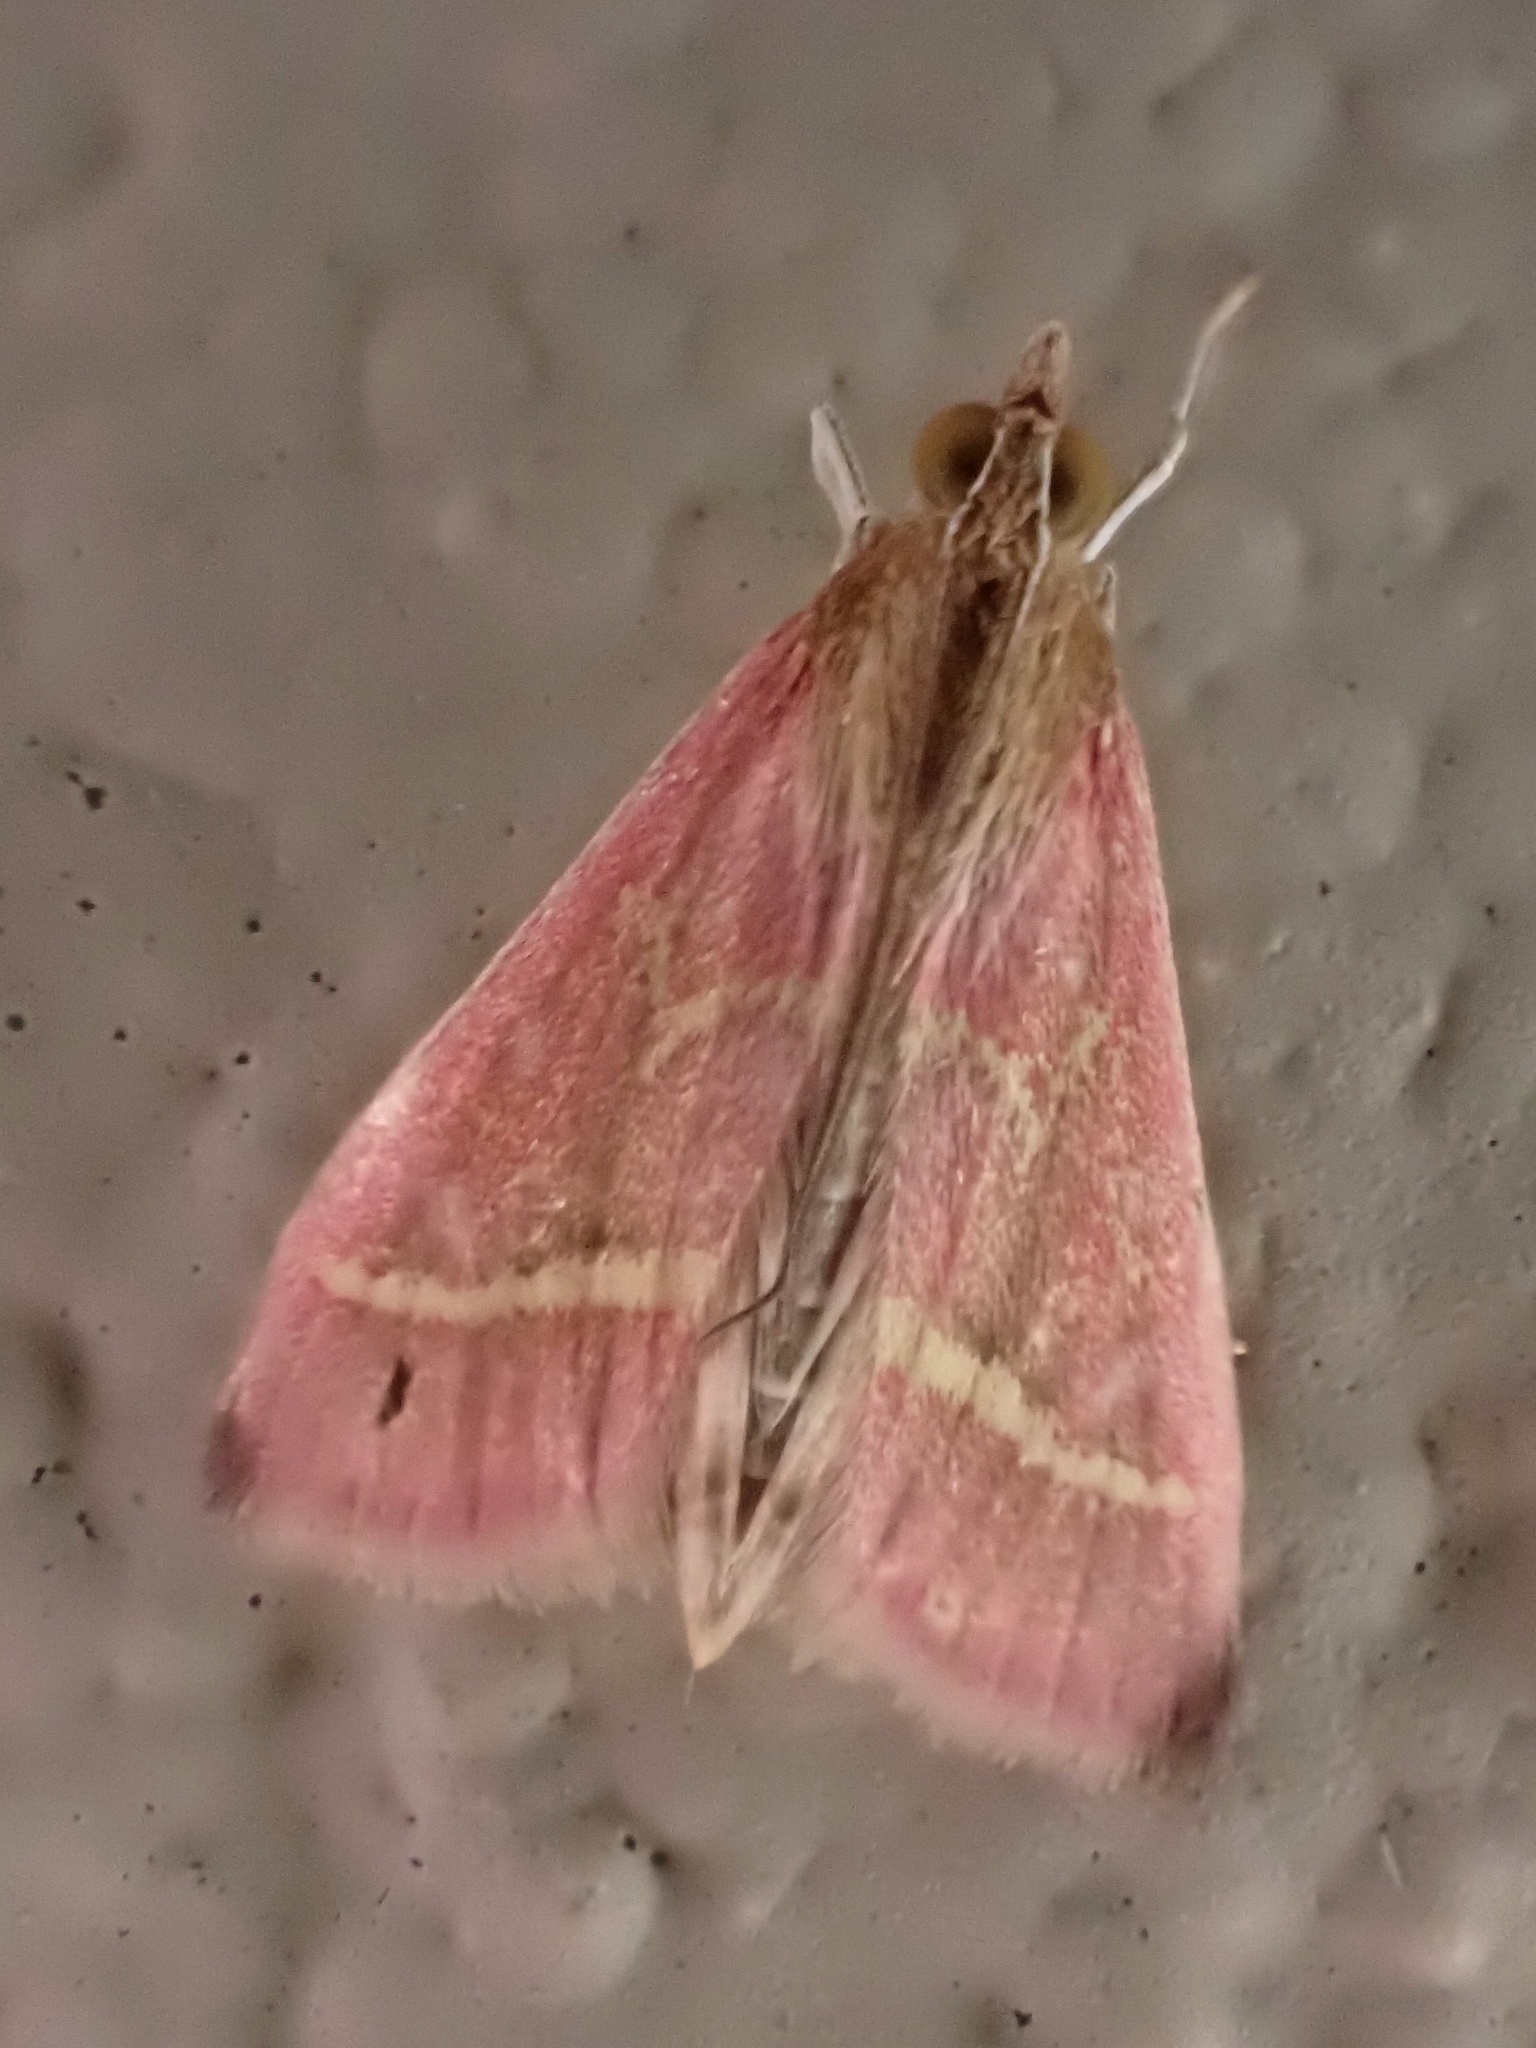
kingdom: Animalia
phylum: Arthropoda
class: Insecta
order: Lepidoptera
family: Crambidae
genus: Pyrausta
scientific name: Pyrausta volupialis
